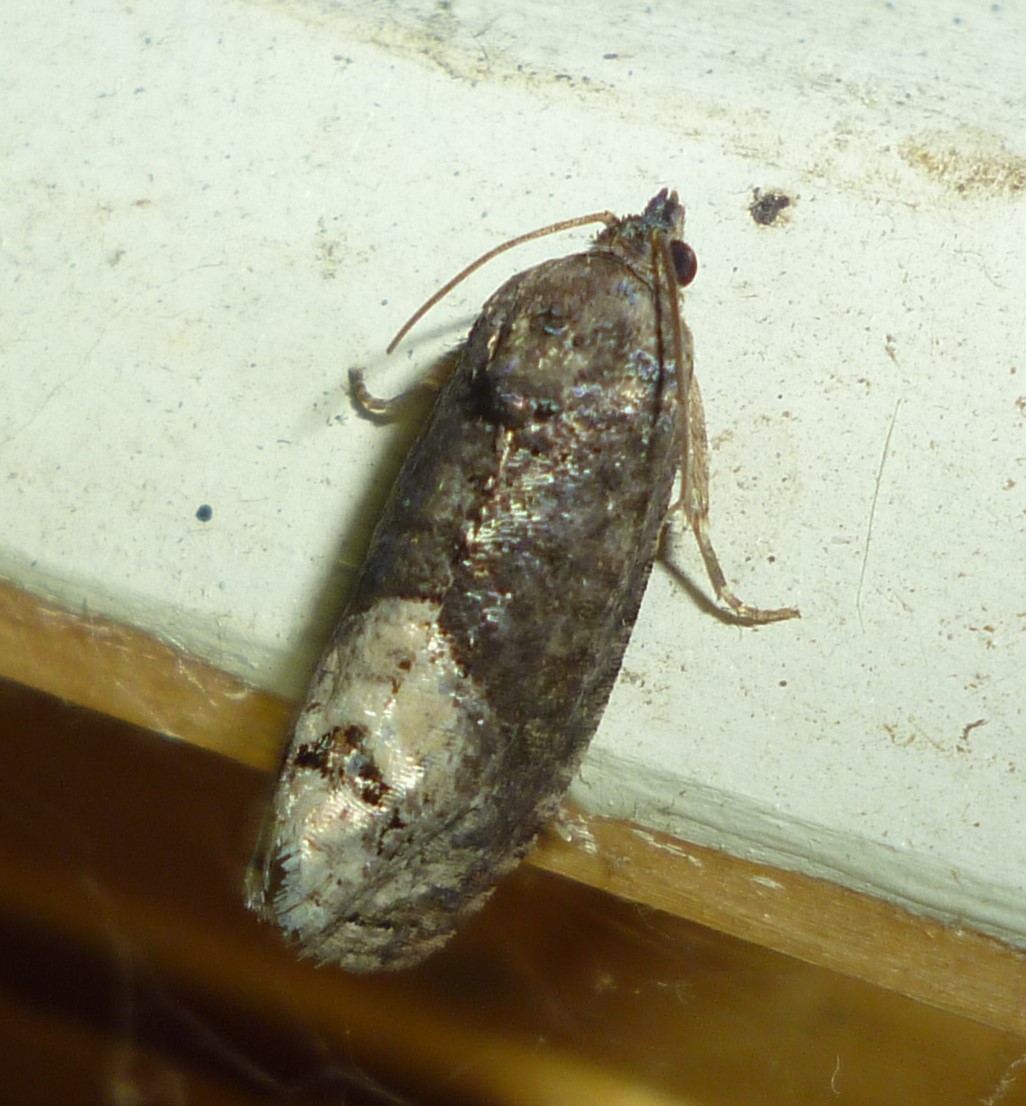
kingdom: Animalia
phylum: Arthropoda
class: Insecta
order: Lepidoptera
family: Tortricidae
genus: Ecdytolopha
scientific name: Ecdytolopha insiticiana
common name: Locust twig borer moth
